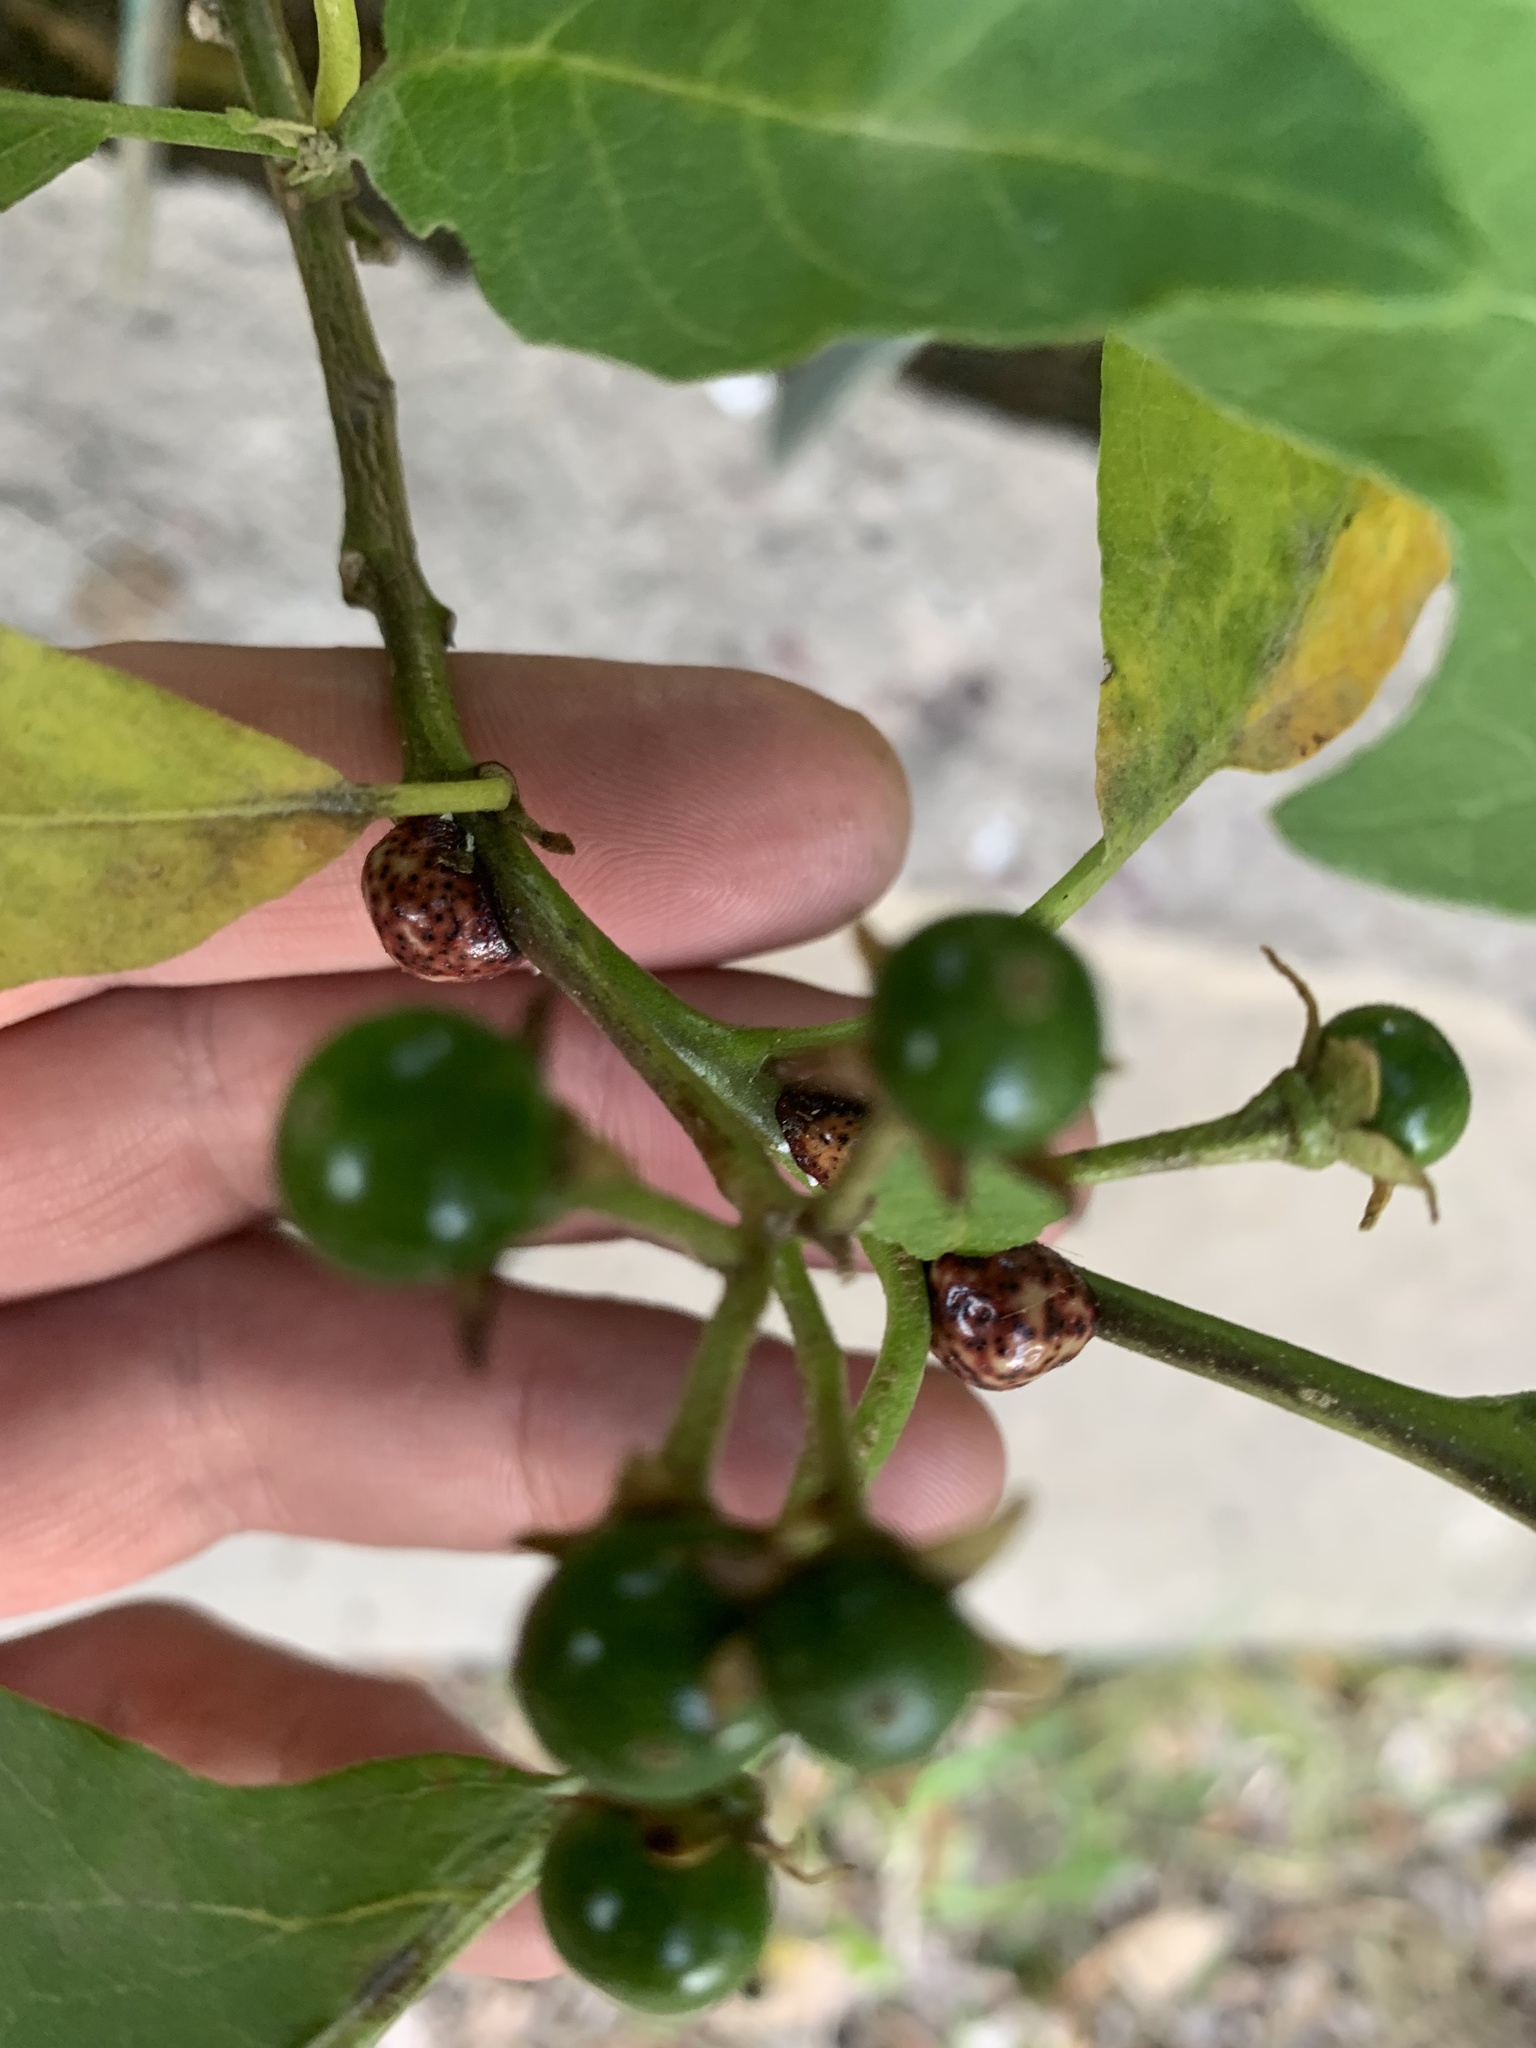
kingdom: Plantae
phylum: Tracheophyta
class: Magnoliopsida
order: Solanales
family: Solanaceae
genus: Solanum
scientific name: Solanum bonariense
